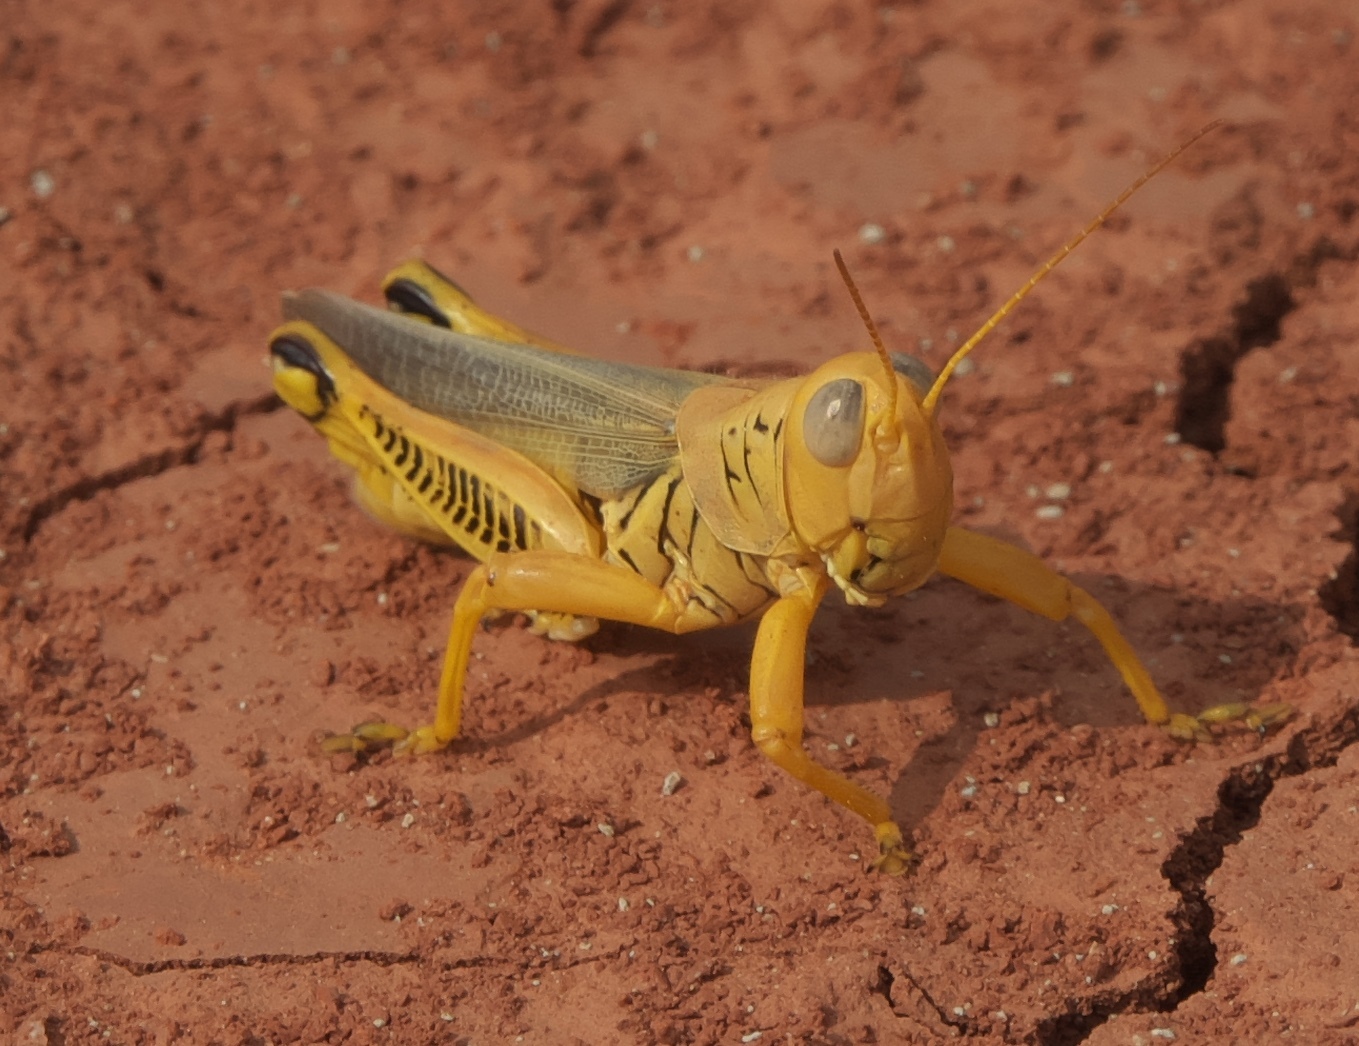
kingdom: Animalia
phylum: Arthropoda
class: Insecta
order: Orthoptera
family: Acrididae
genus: Melanoplus
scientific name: Melanoplus differentialis
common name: Differential grasshopper
